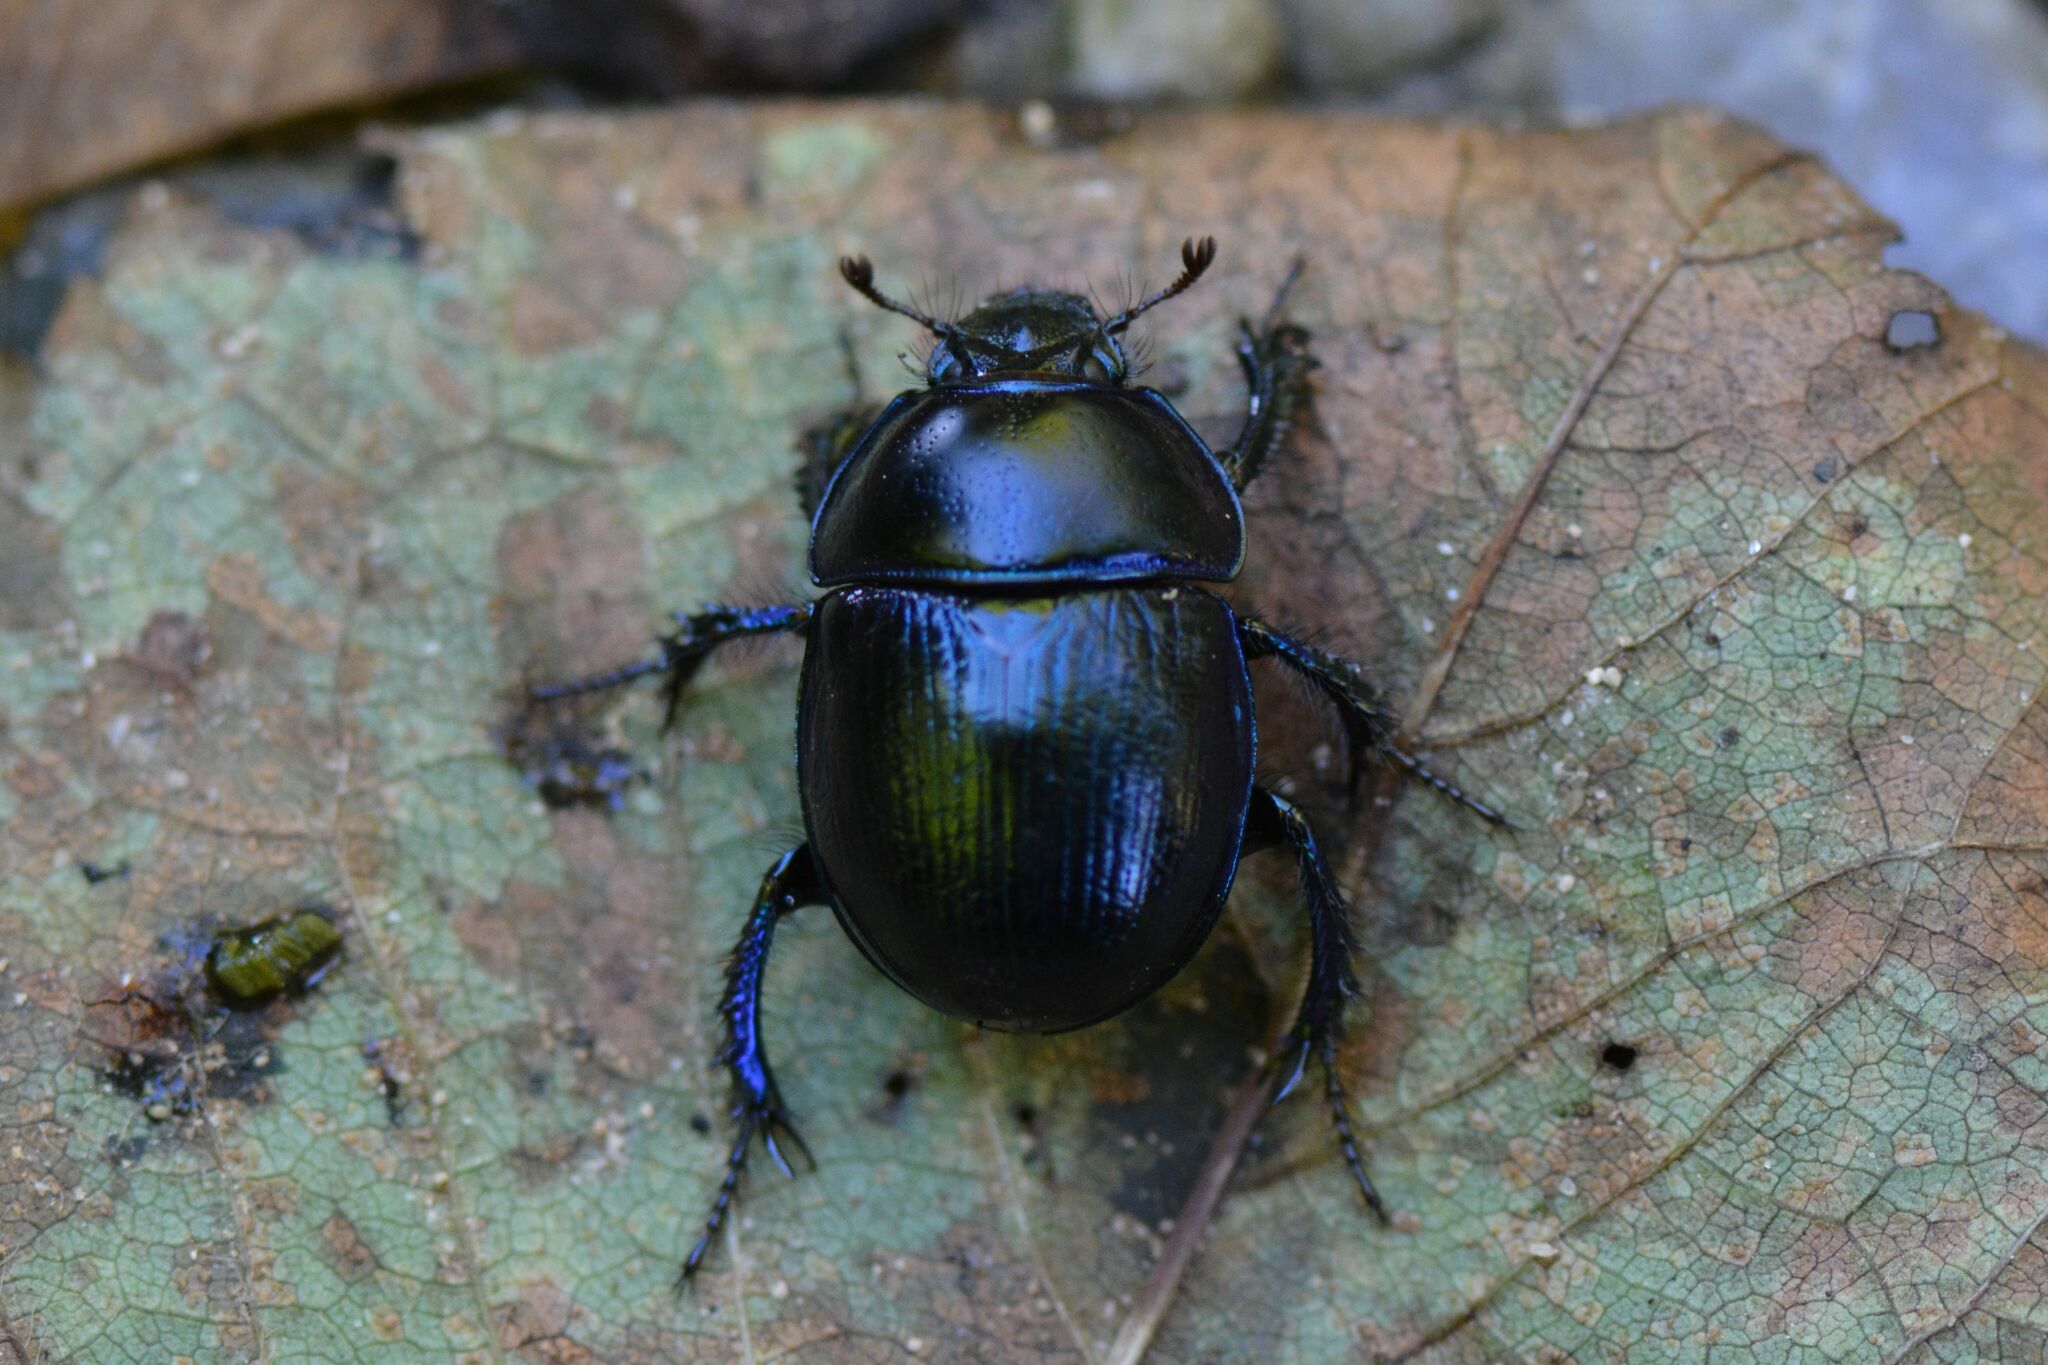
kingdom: Animalia
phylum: Arthropoda
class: Insecta
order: Coleoptera
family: Geotrupidae
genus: Anoplotrupes
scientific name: Anoplotrupes stercorosus
